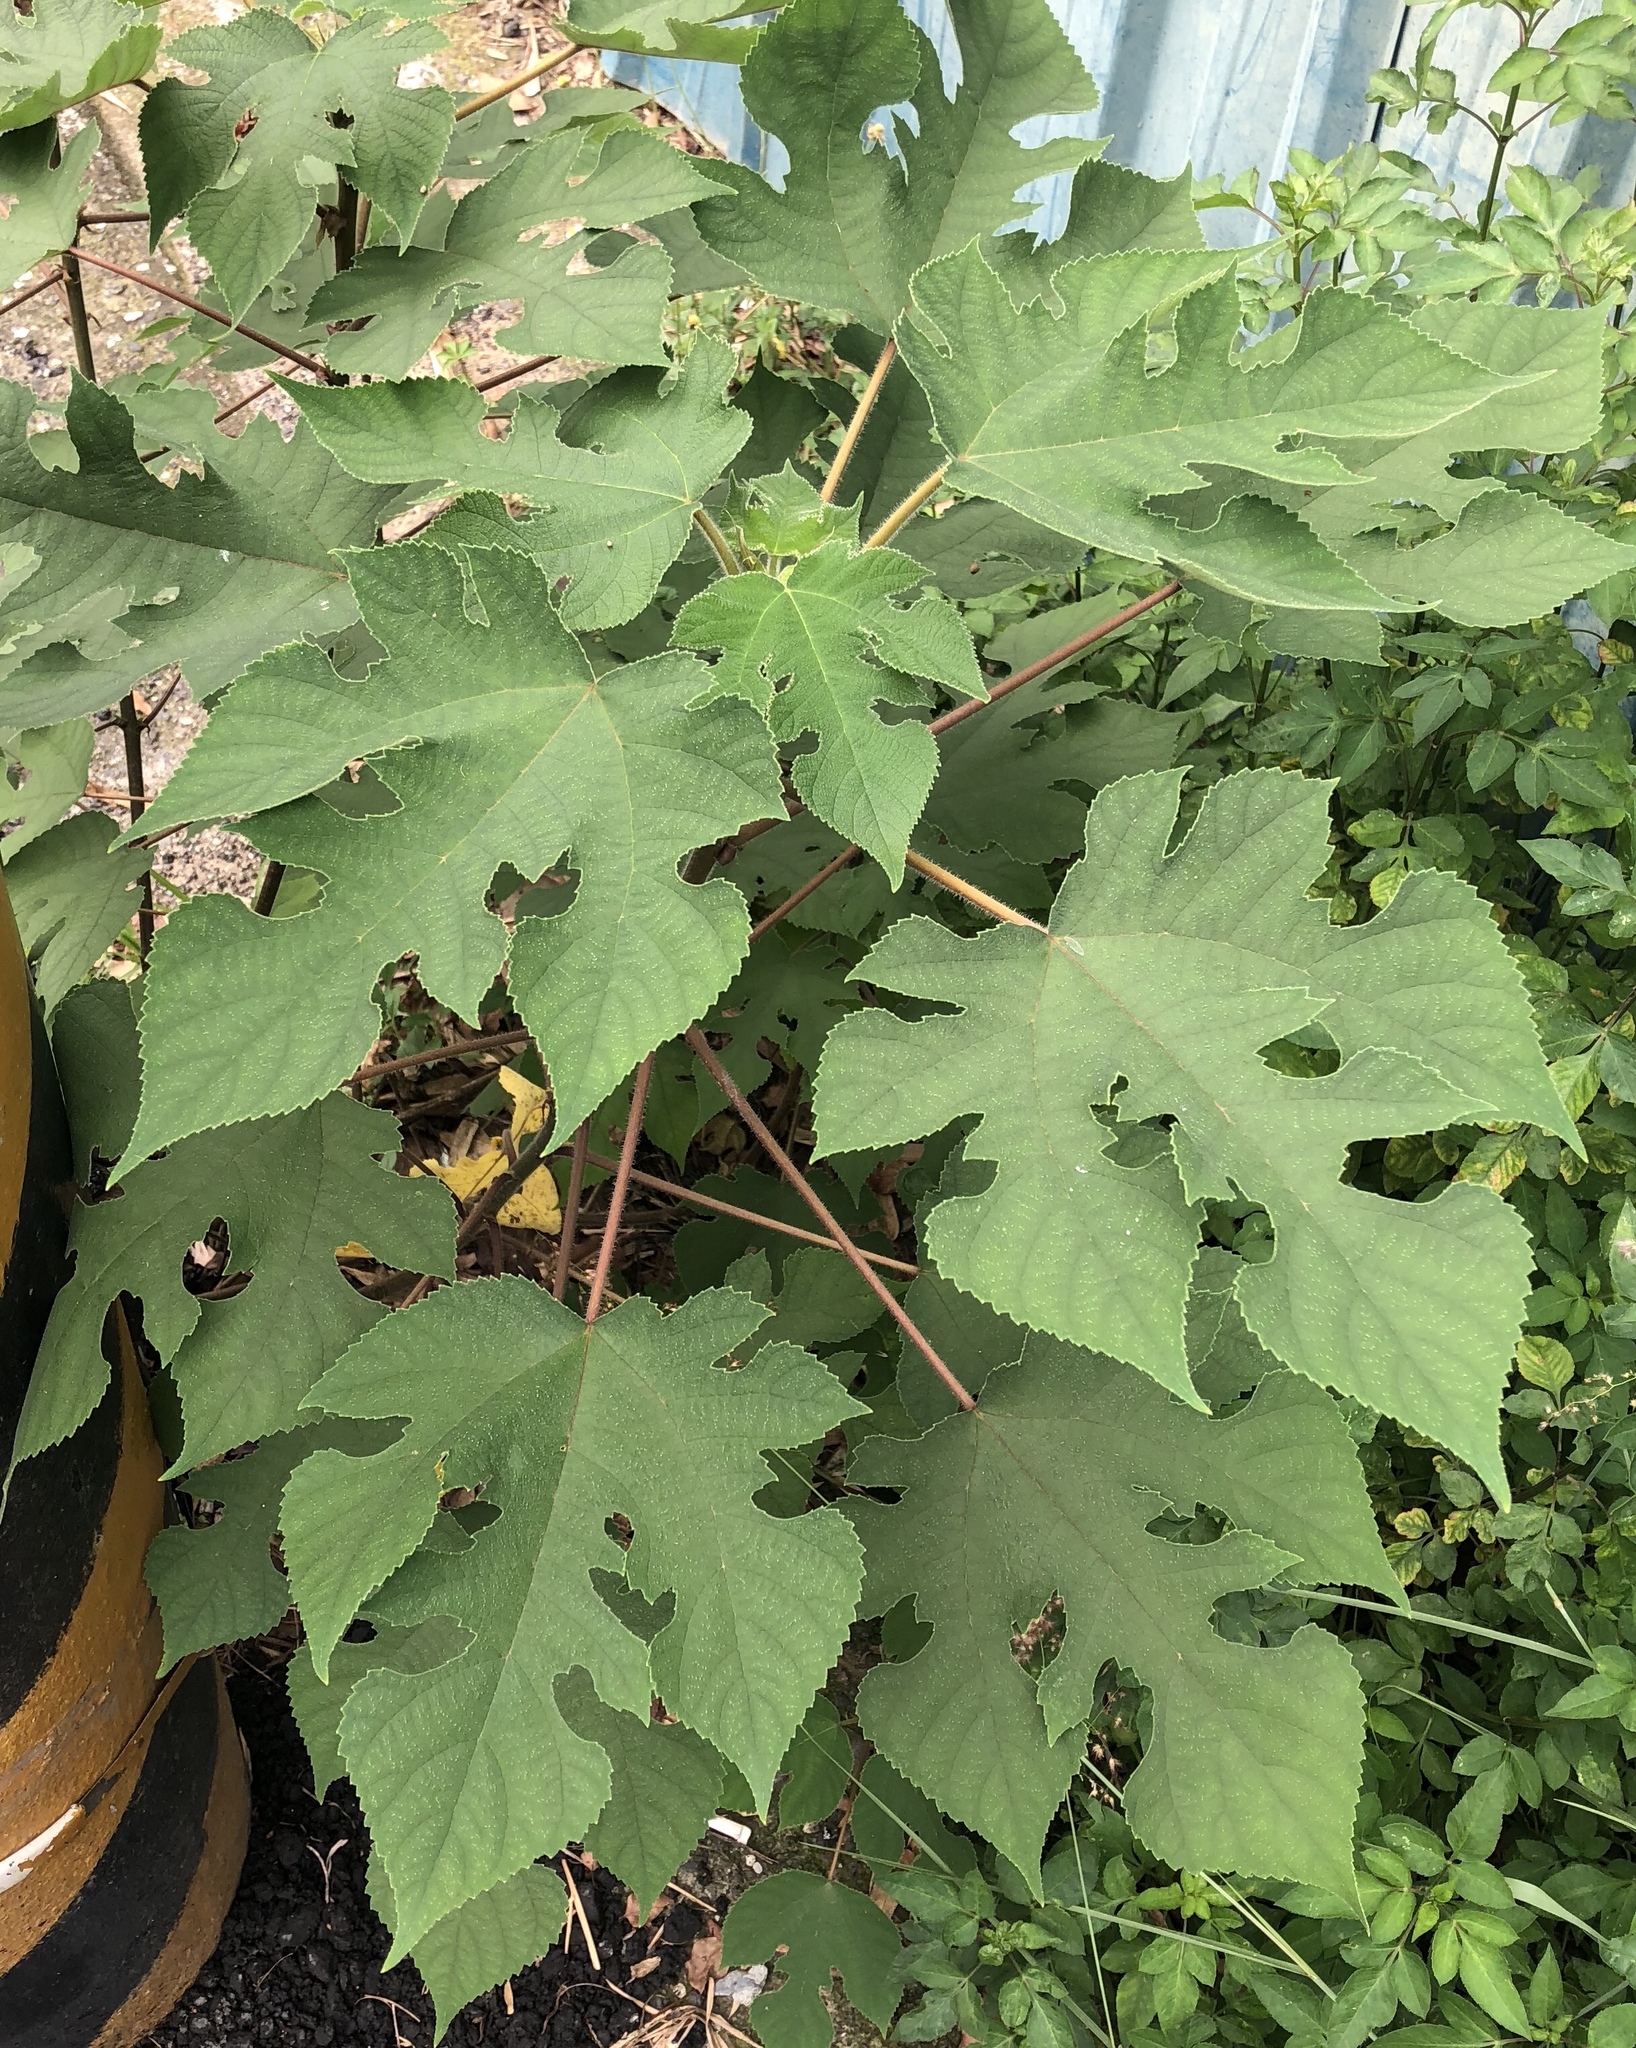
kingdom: Plantae
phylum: Tracheophyta
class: Magnoliopsida
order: Rosales
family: Moraceae
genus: Broussonetia
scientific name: Broussonetia papyrifera
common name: Paper mulberry
